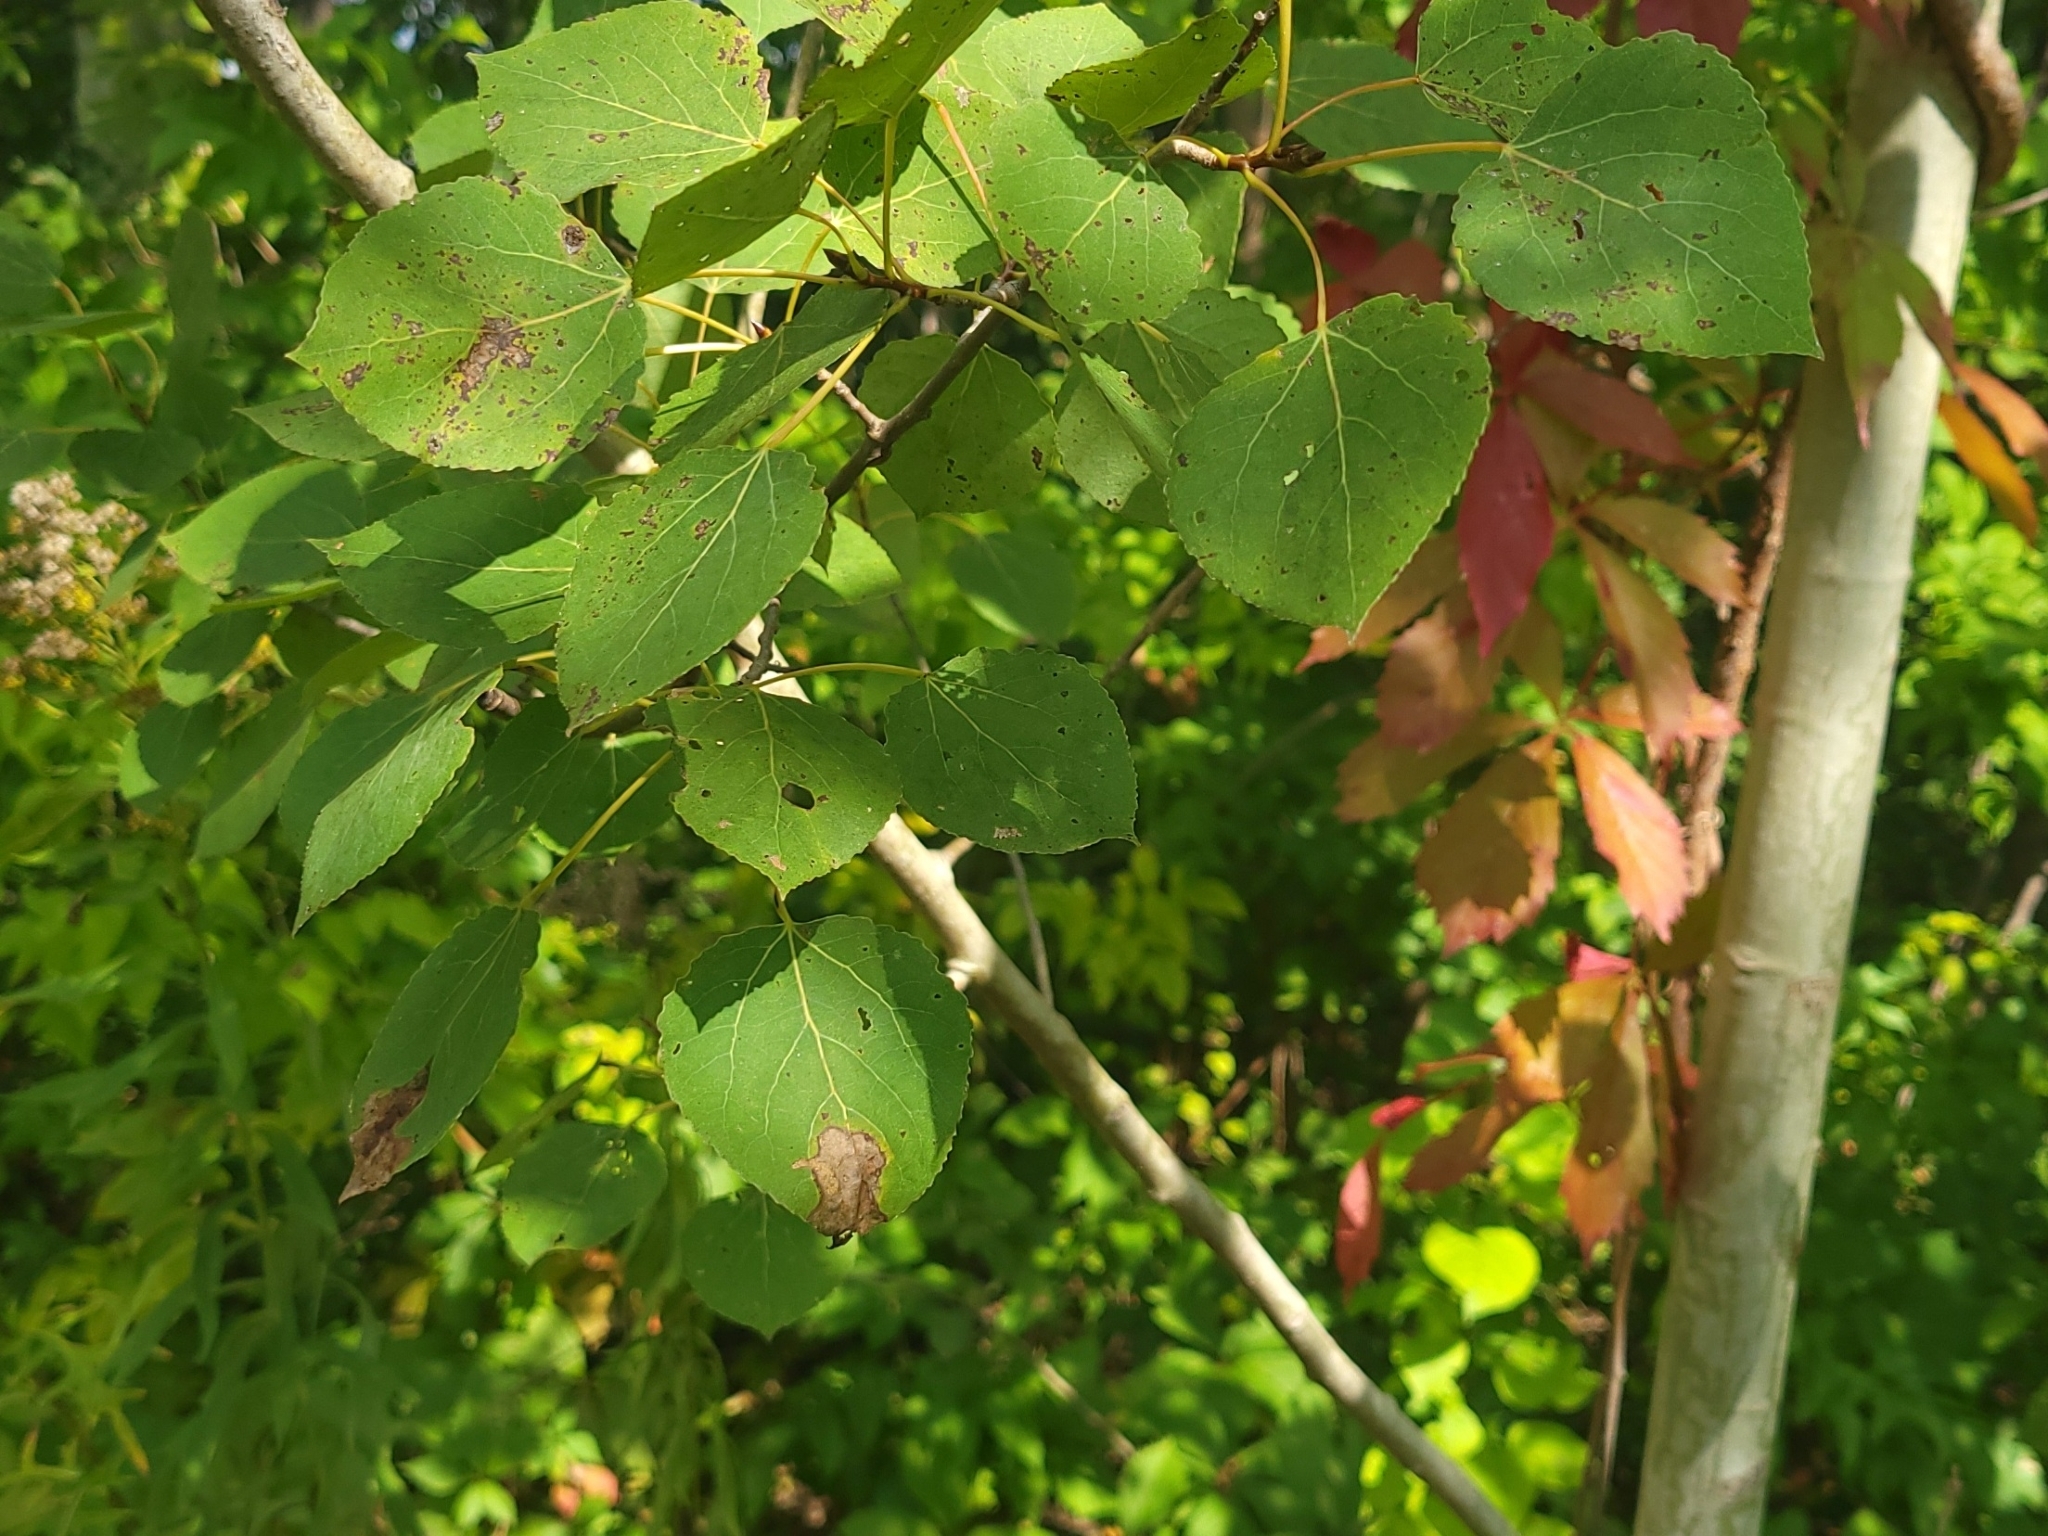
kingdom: Plantae
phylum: Tracheophyta
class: Magnoliopsida
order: Malpighiales
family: Salicaceae
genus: Populus
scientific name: Populus tremuloides
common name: Quaking aspen
